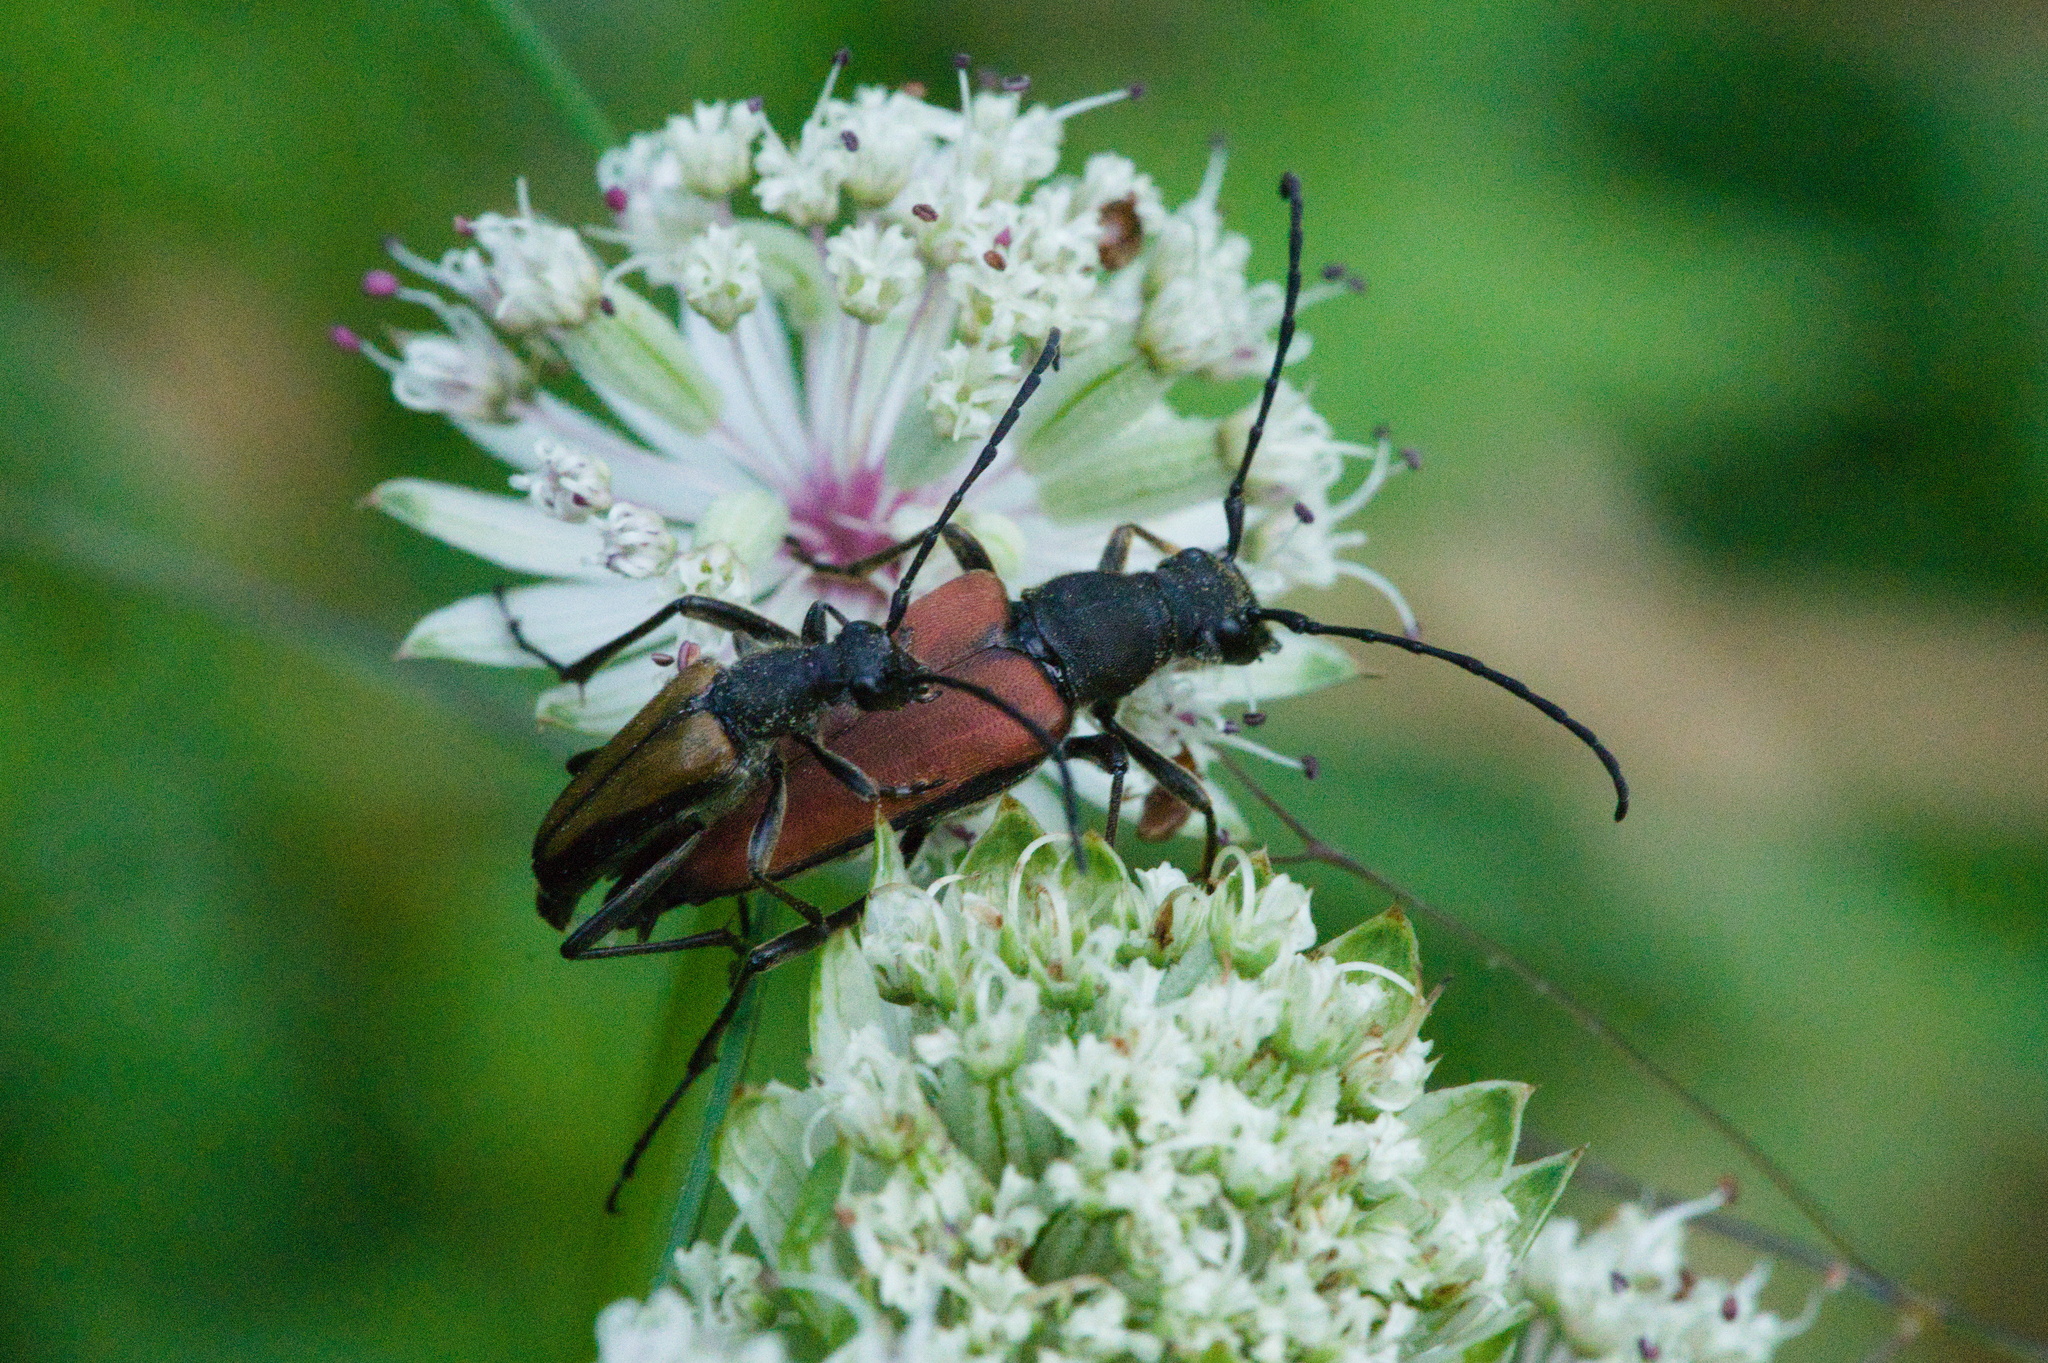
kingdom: Animalia
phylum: Arthropoda
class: Insecta
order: Coleoptera
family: Cerambycidae
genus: Anastrangalia
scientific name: Anastrangalia dubia
